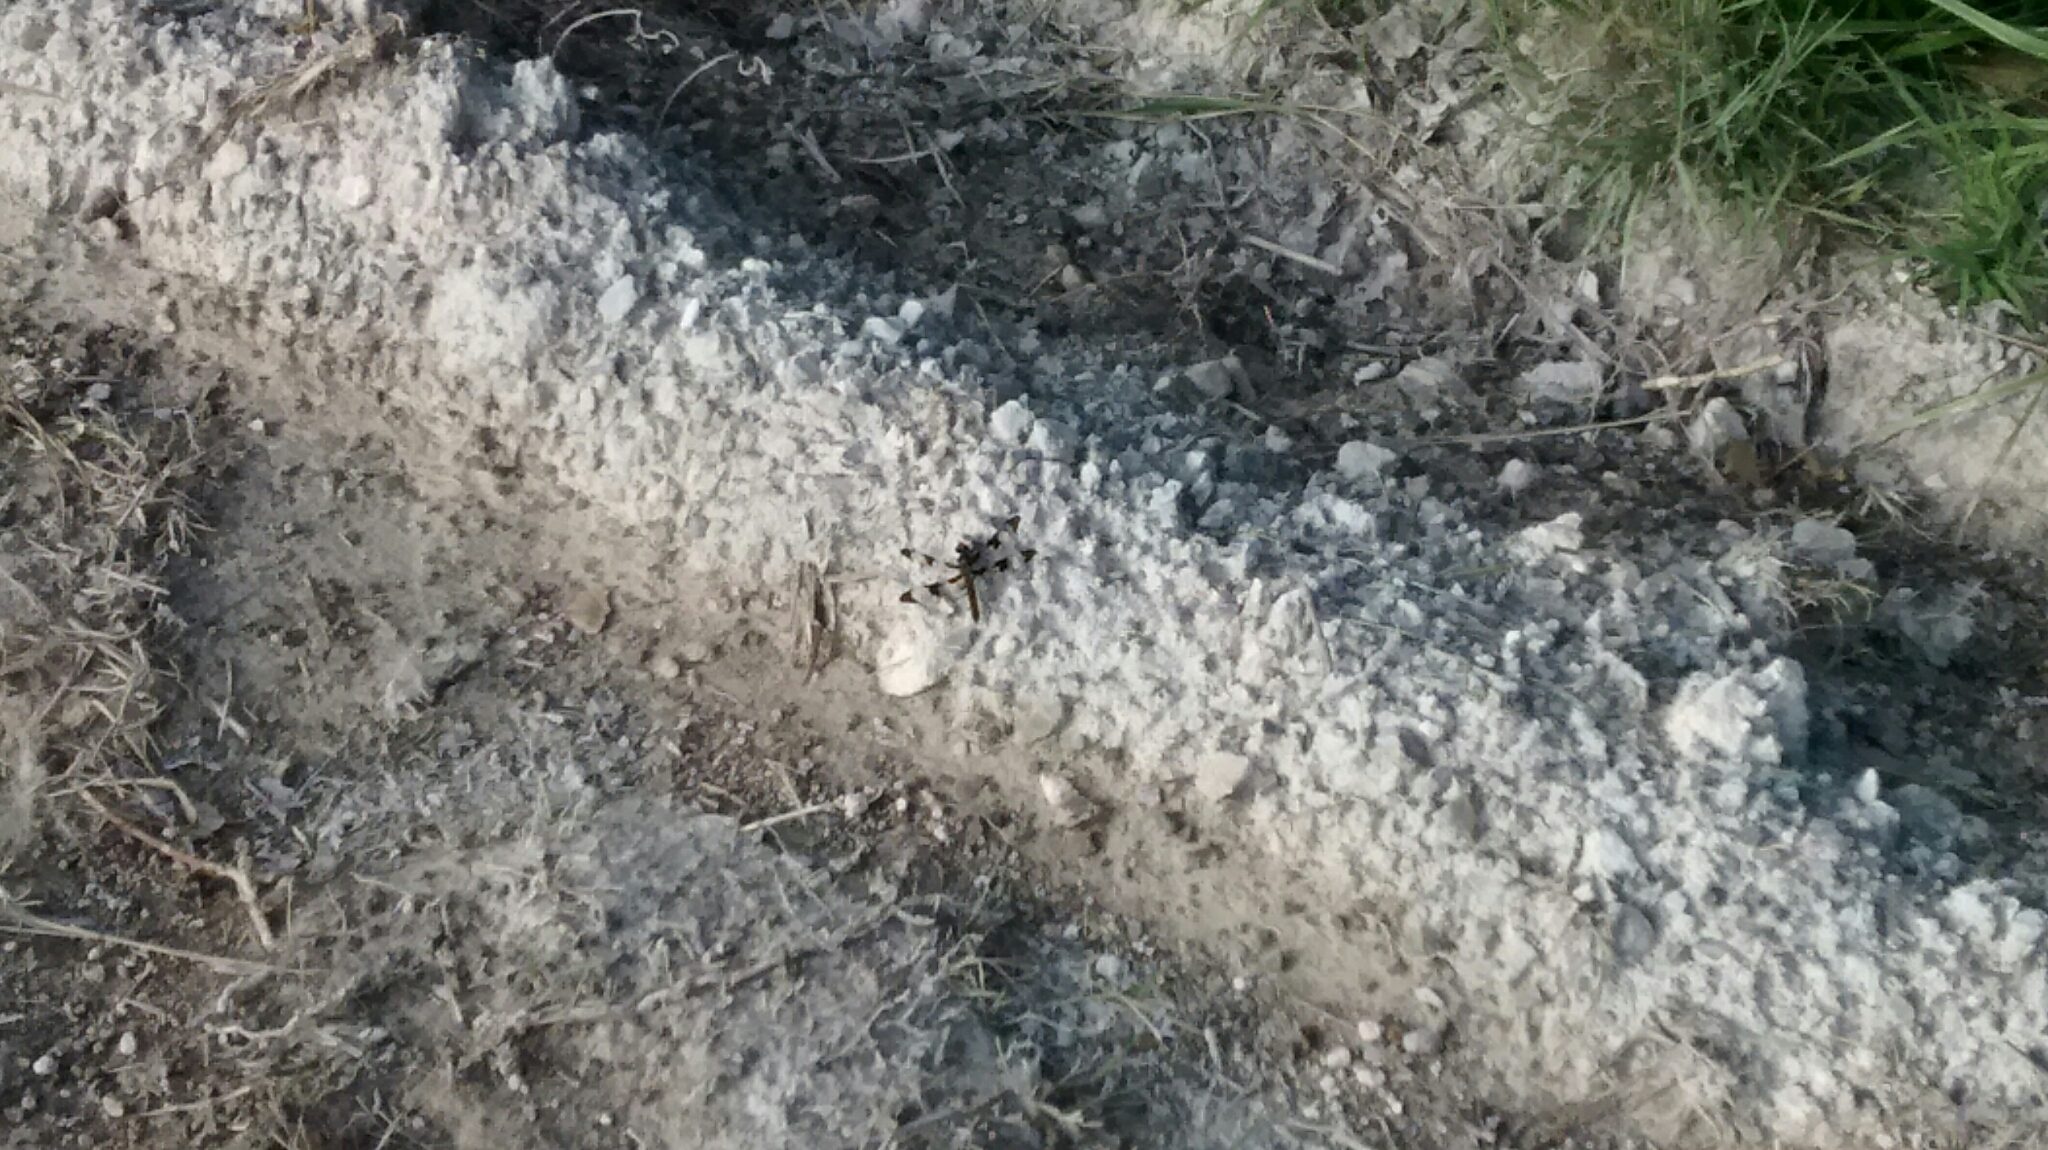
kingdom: Animalia
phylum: Arthropoda
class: Insecta
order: Odonata
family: Libellulidae
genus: Plathemis
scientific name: Plathemis lydia
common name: Common whitetail
